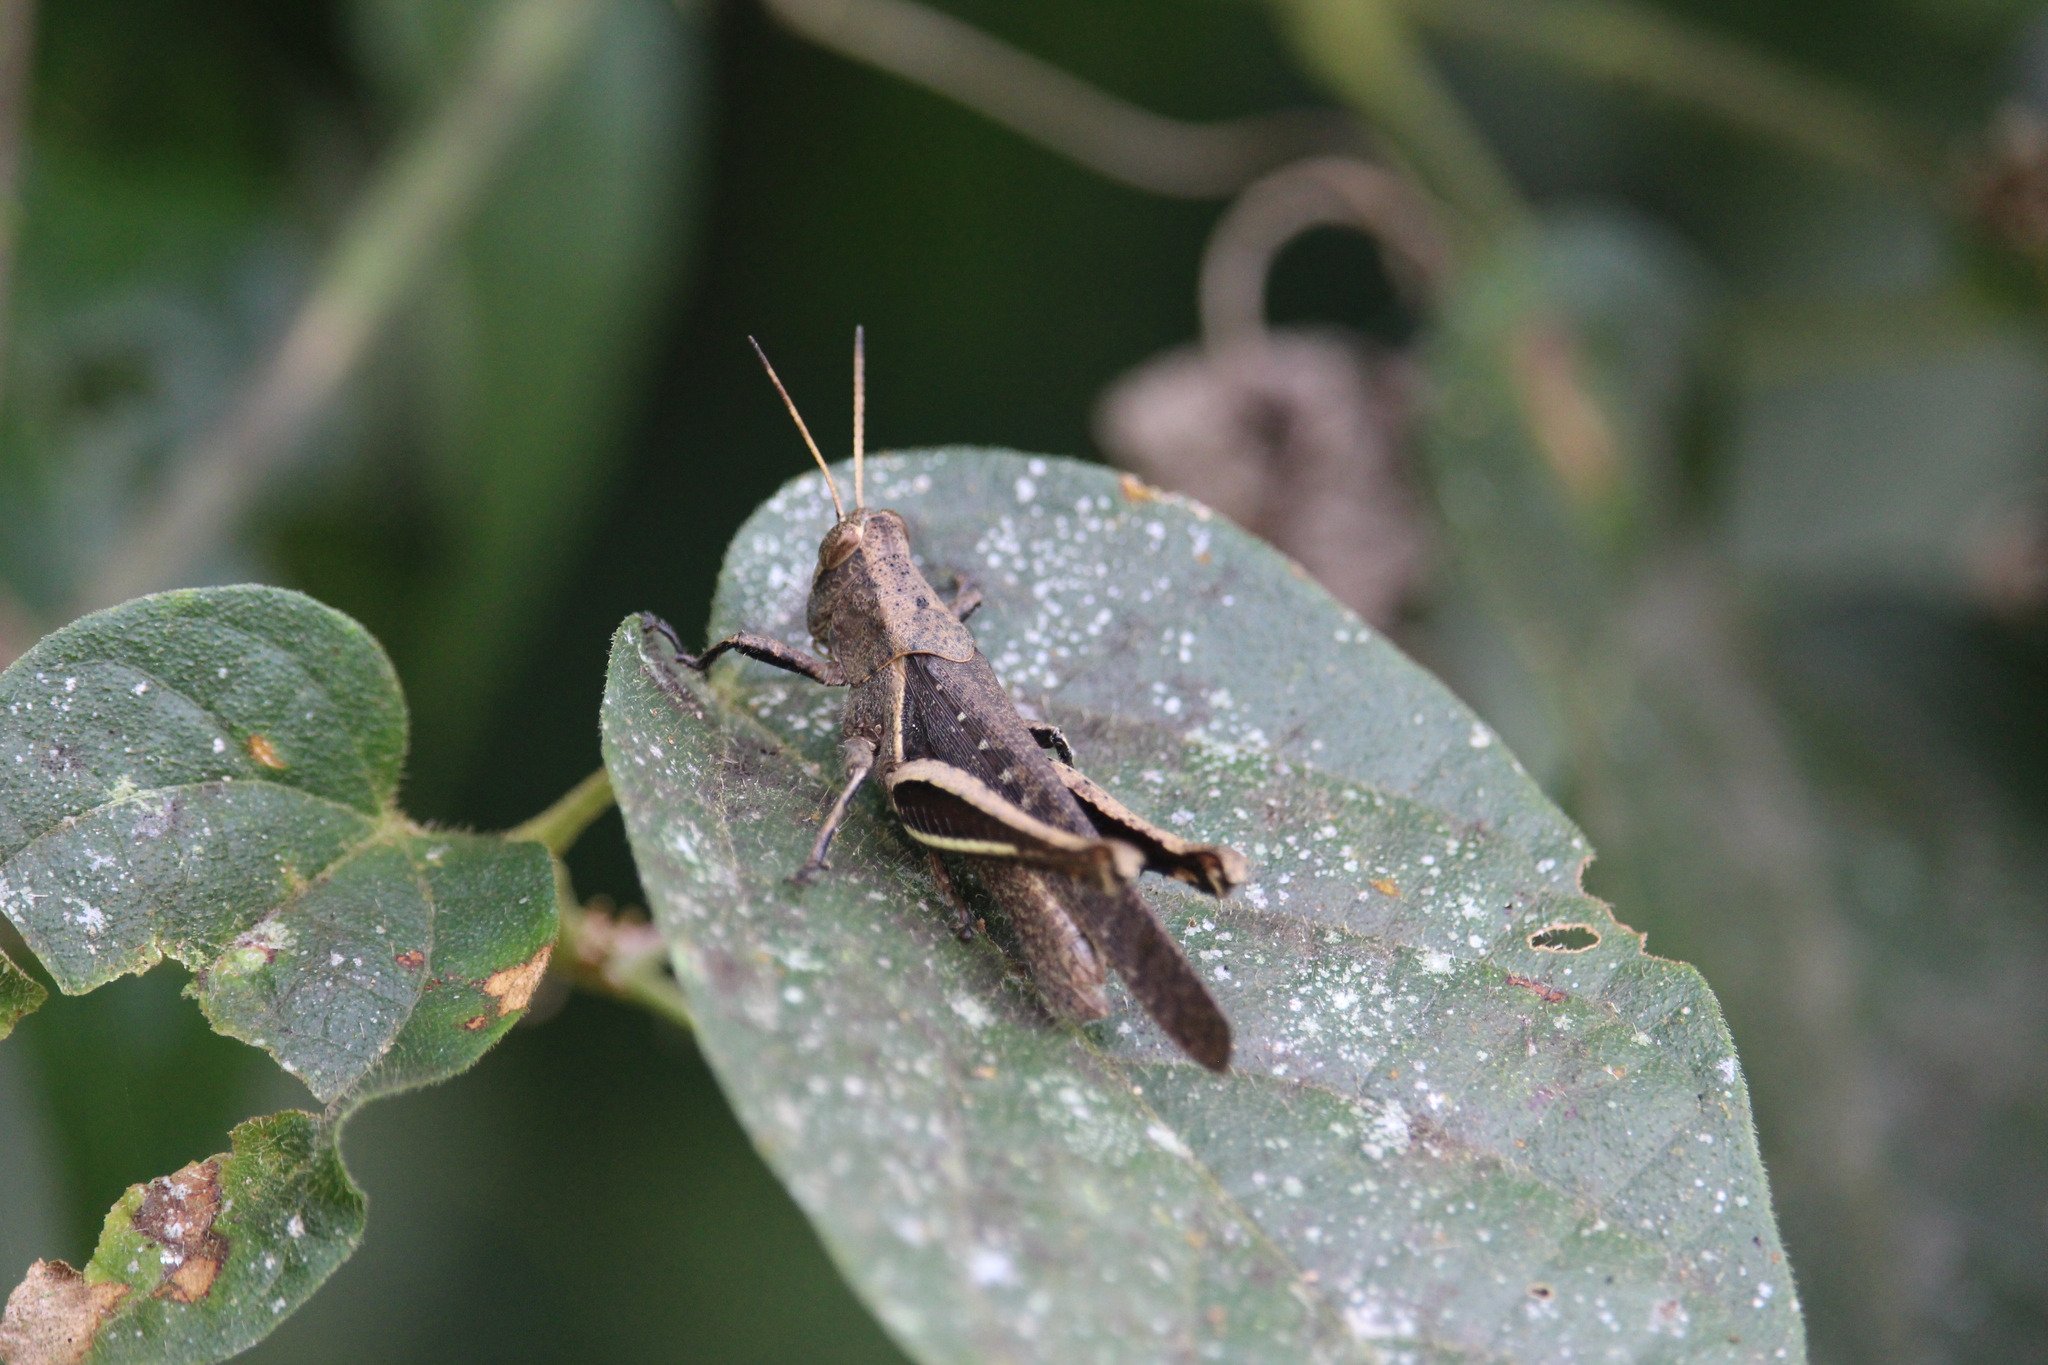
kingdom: Animalia
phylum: Arthropoda
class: Insecta
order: Orthoptera
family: Acrididae
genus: Abracris
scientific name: Abracris flavolineata
